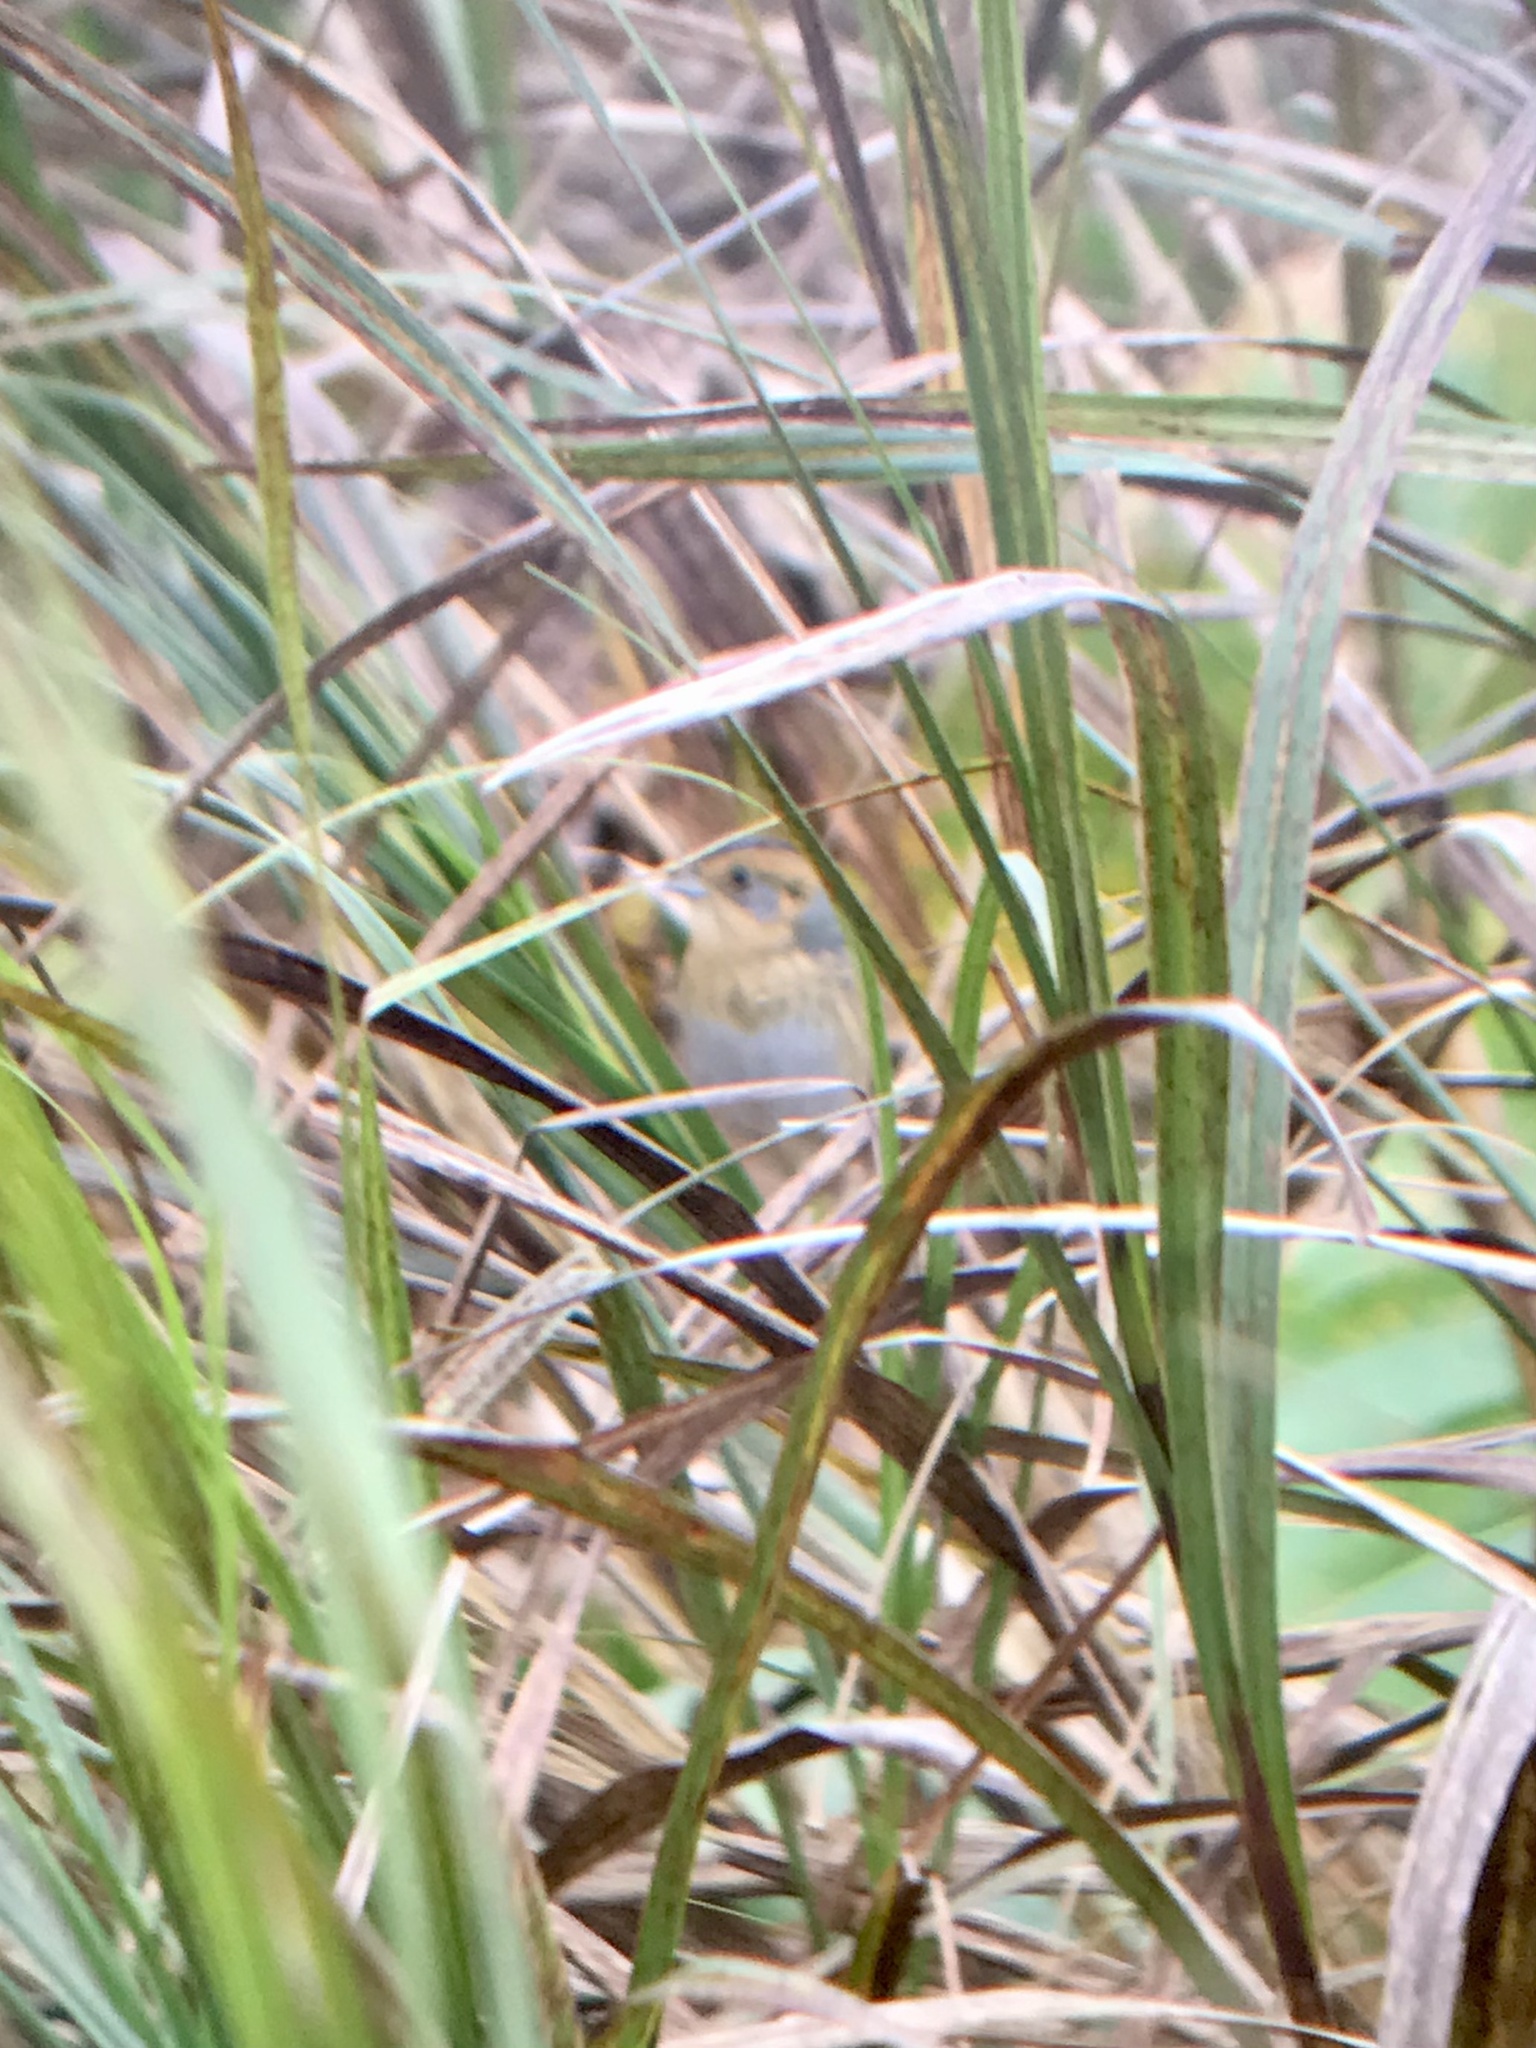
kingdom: Animalia
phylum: Chordata
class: Aves
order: Passeriformes
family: Passerellidae
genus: Ammospiza
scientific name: Ammospiza nelsoni
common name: Nelson's sparrow
